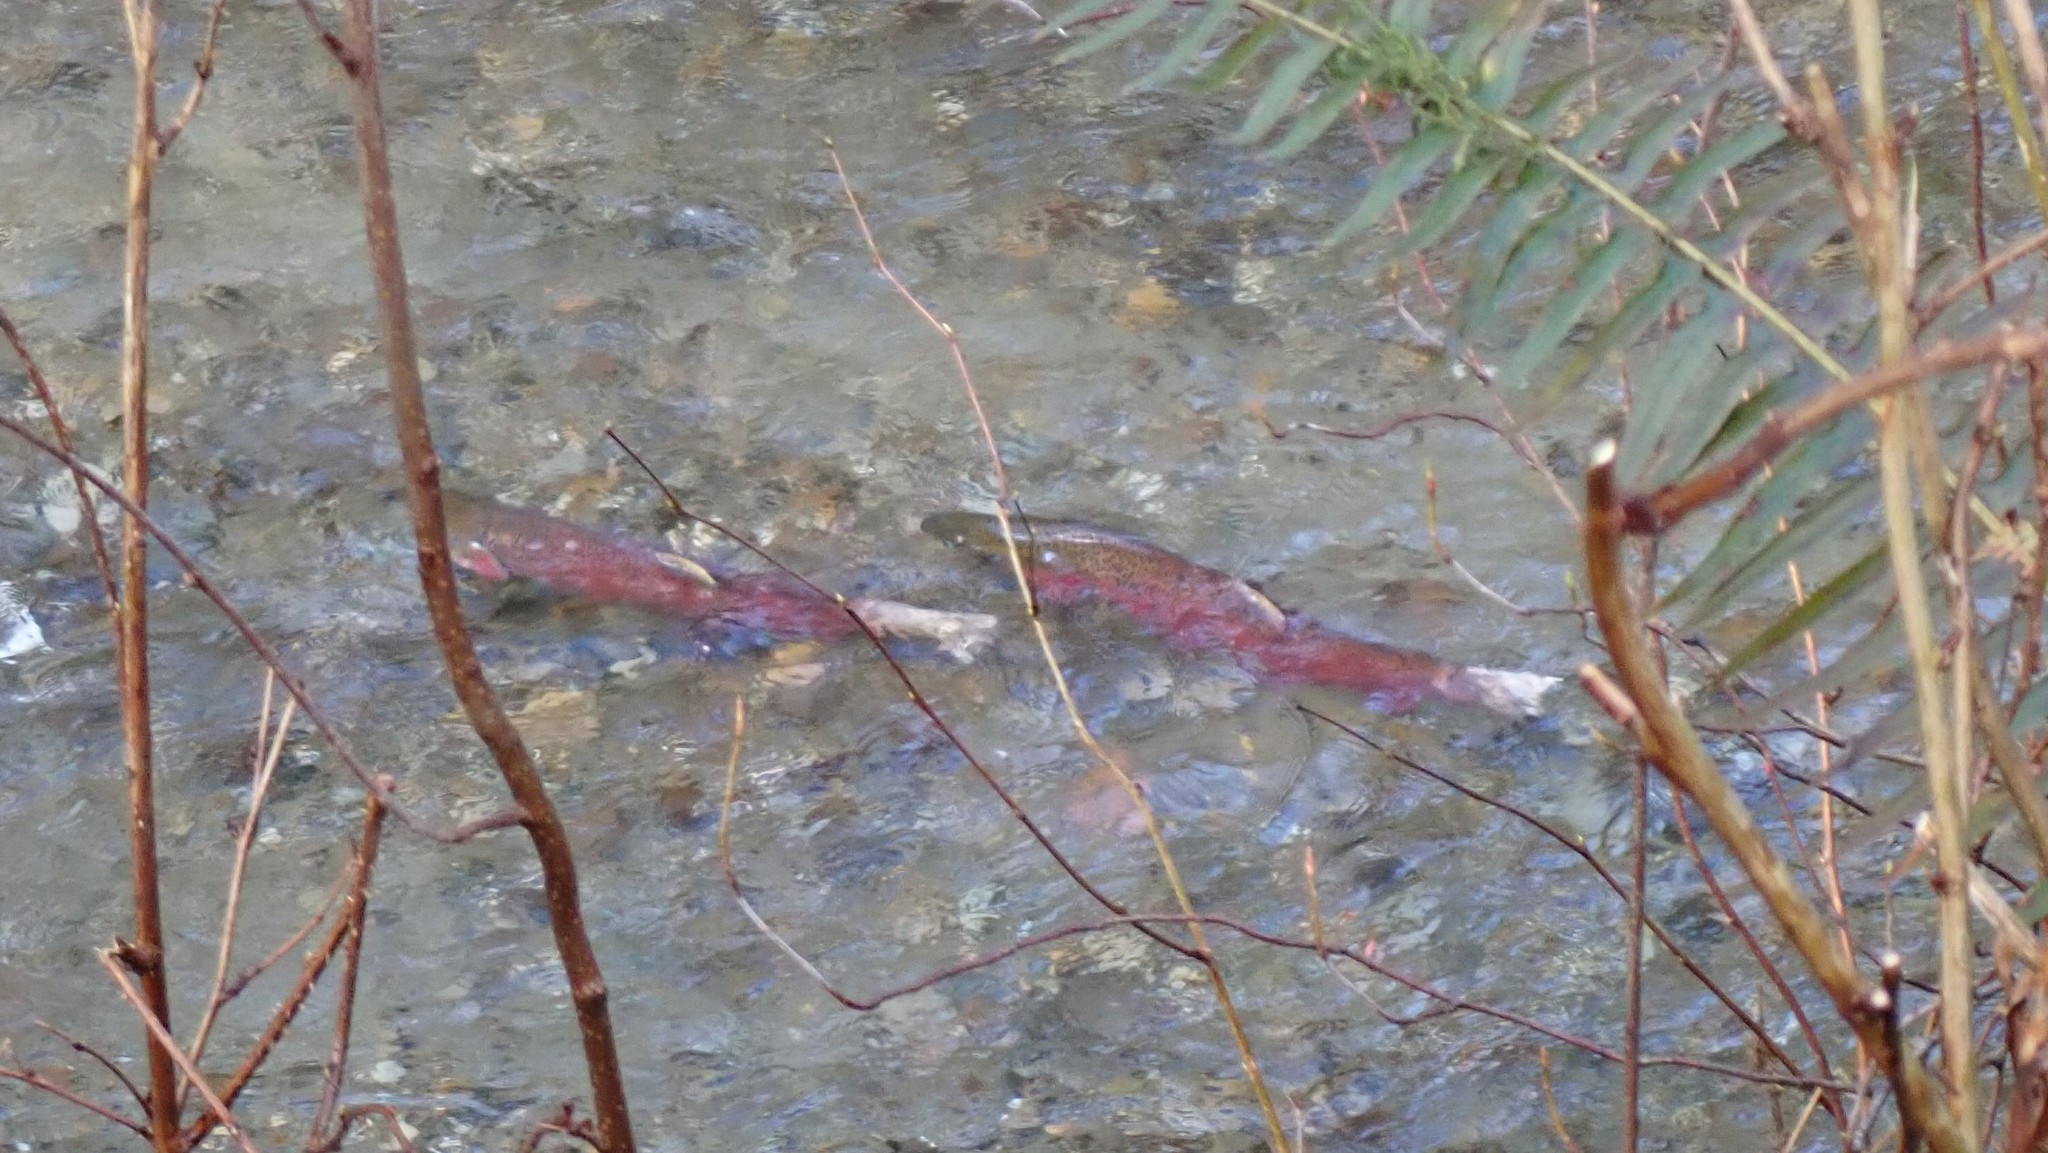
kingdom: Animalia
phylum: Chordata
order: Salmoniformes
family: Salmonidae
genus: Oncorhynchus
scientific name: Oncorhynchus kisutch
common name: Coho salmon
